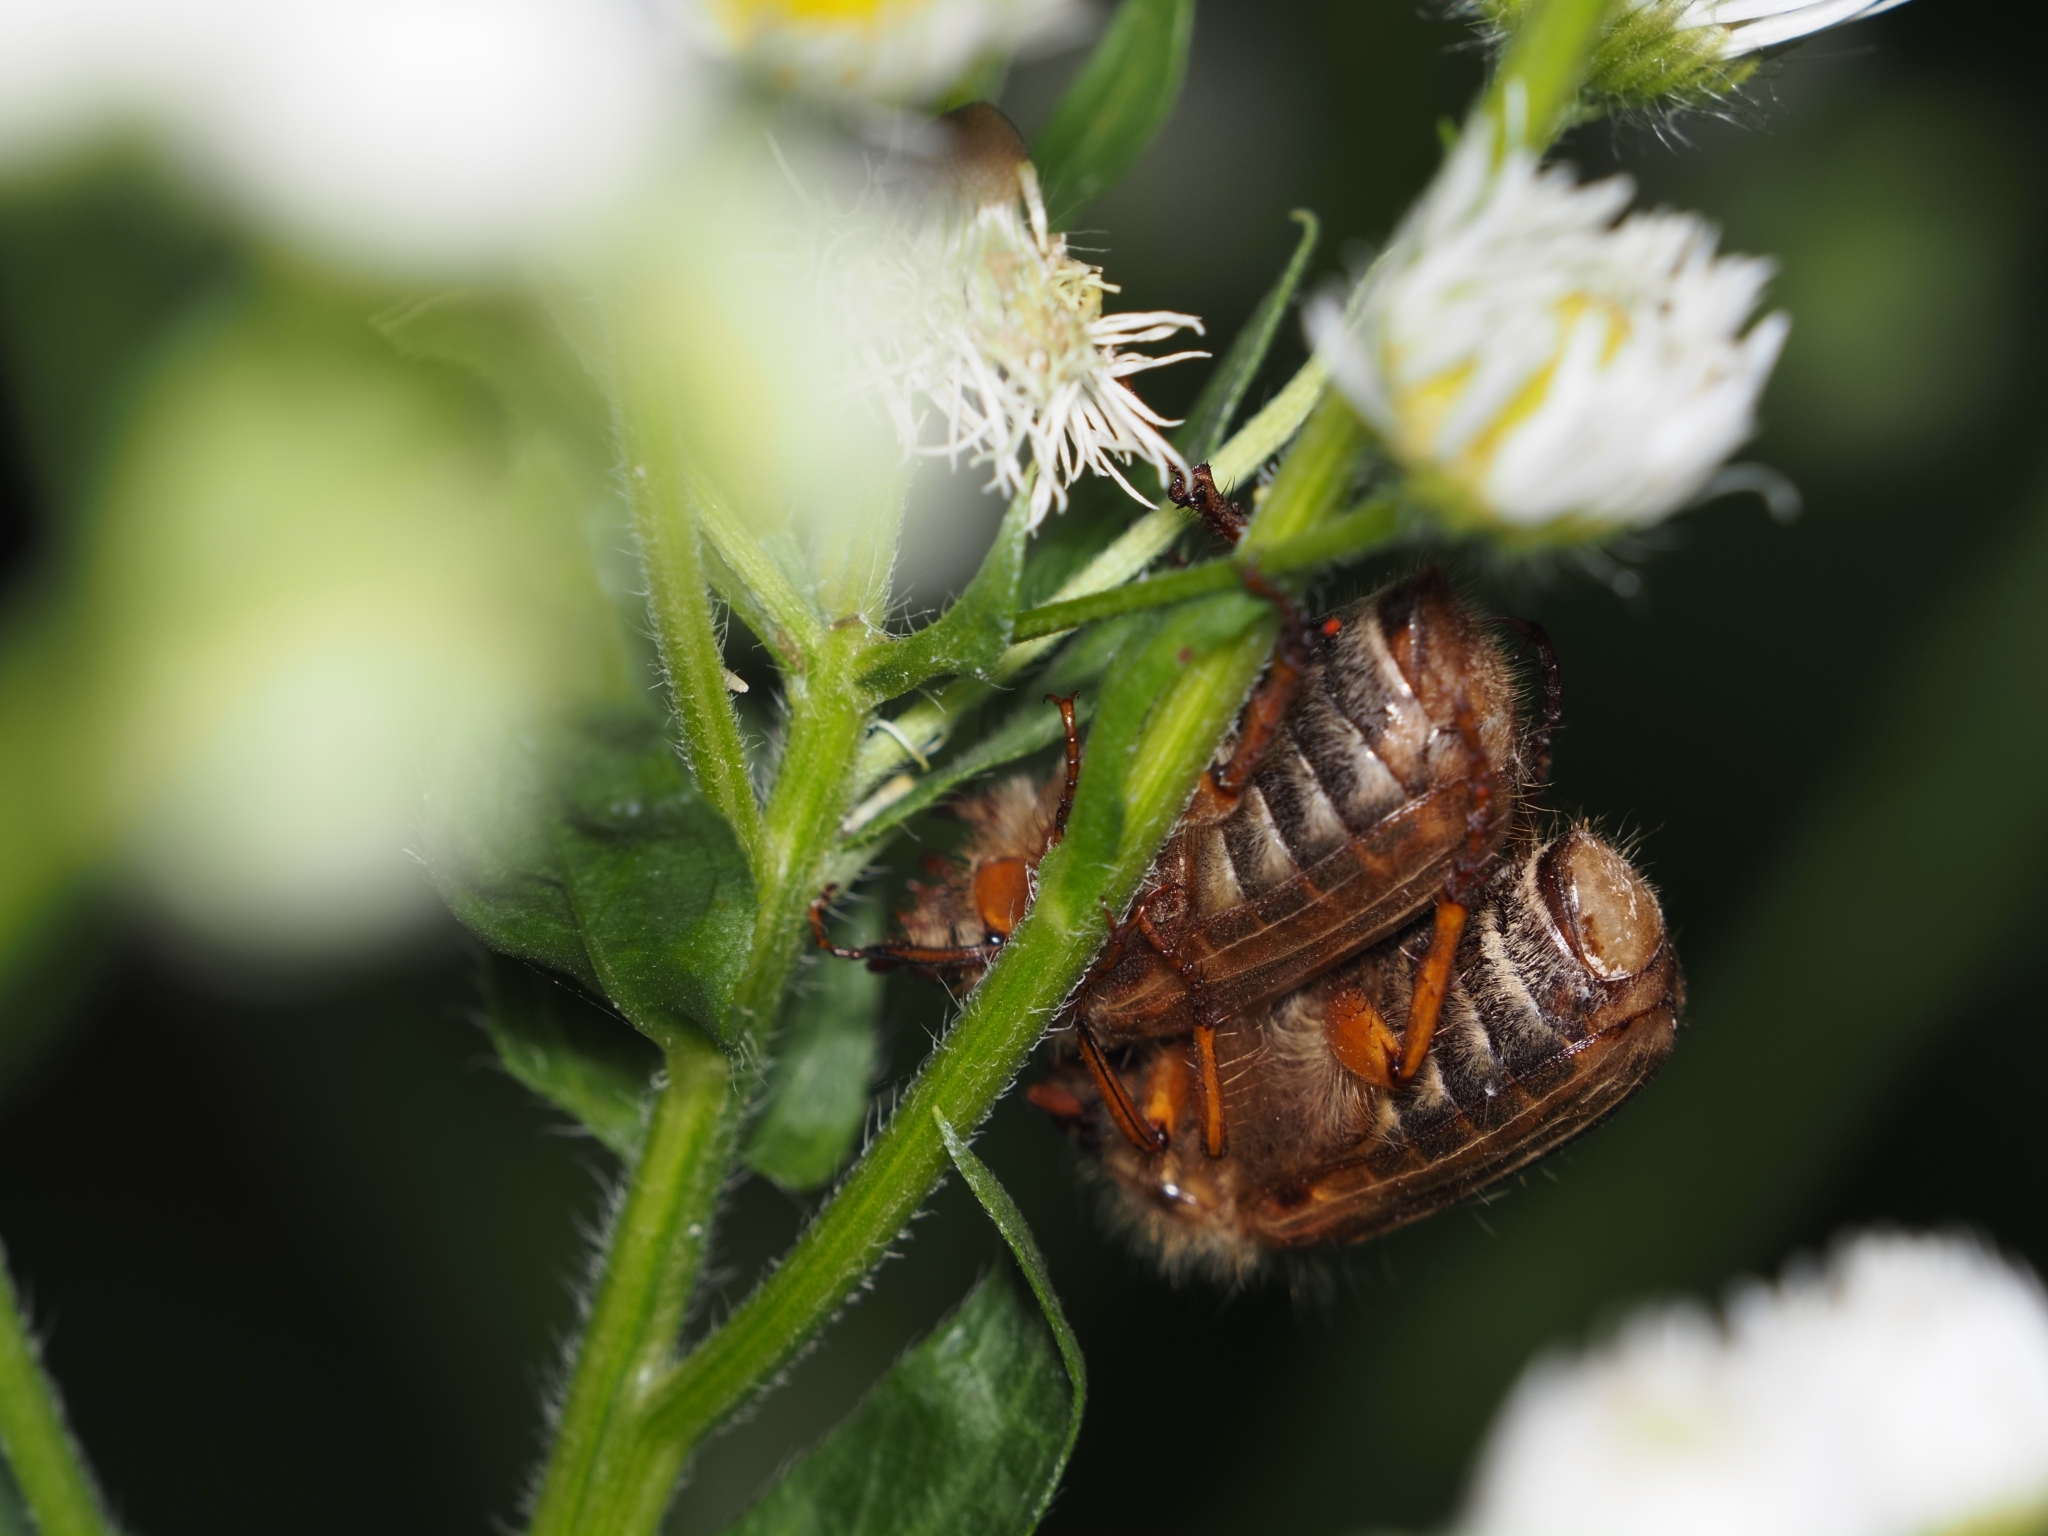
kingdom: Animalia
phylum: Arthropoda
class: Insecta
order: Coleoptera
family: Scarabaeidae
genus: Amphimallon
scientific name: Amphimallon solstitiale
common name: Summer chafer
